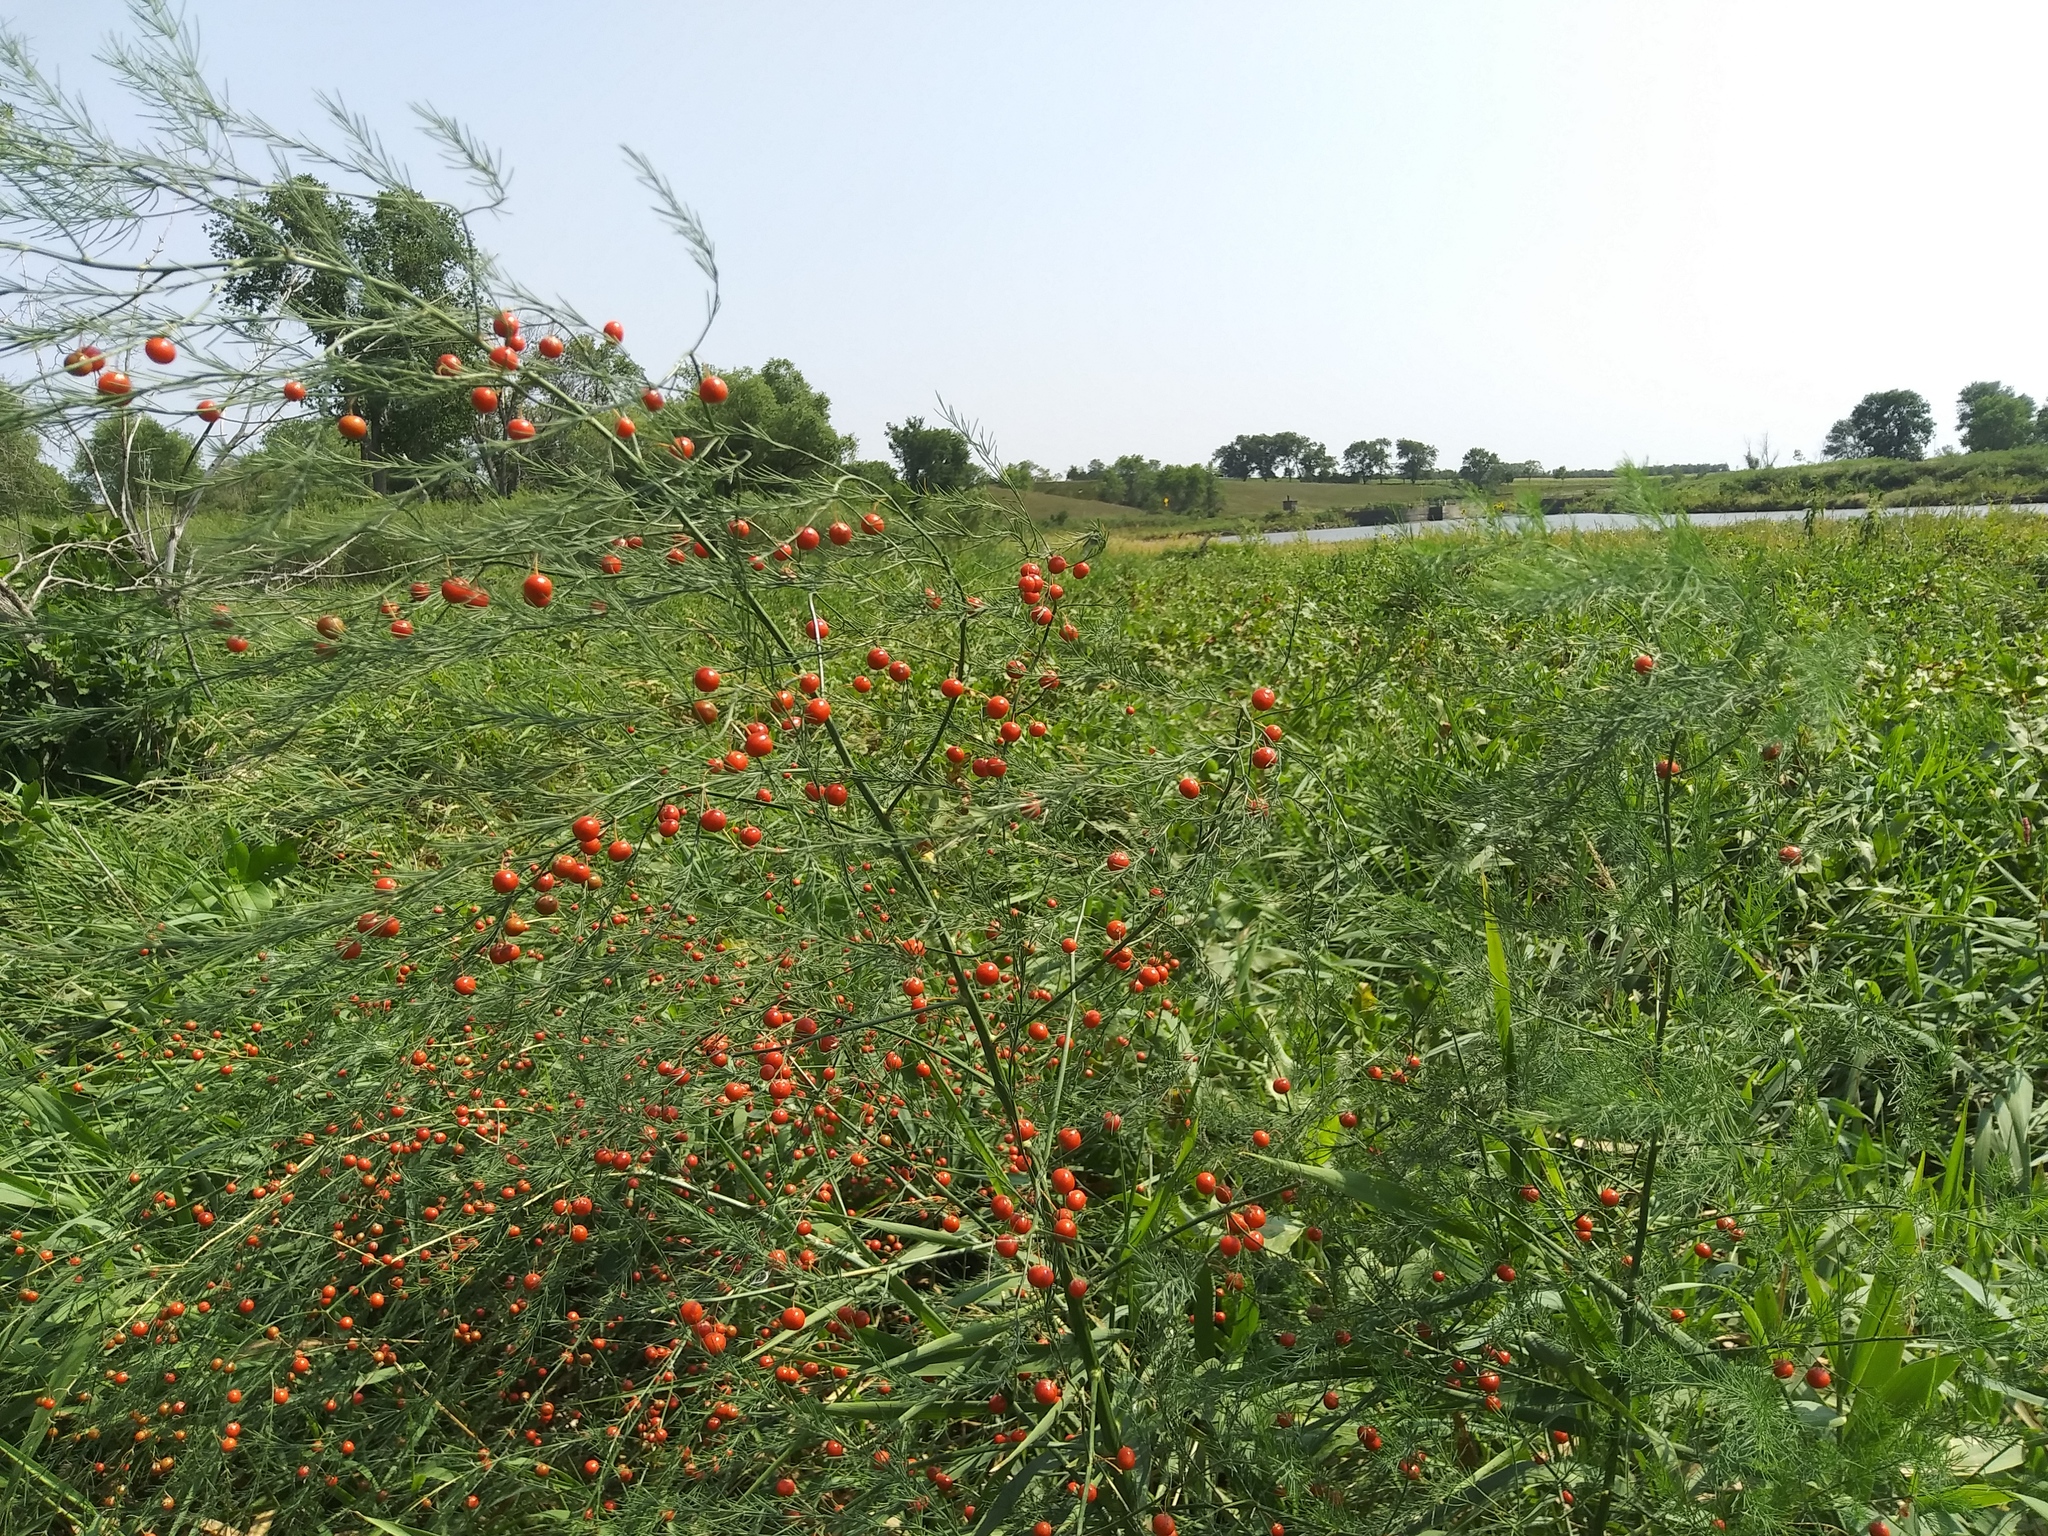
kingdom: Plantae
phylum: Tracheophyta
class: Liliopsida
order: Asparagales
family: Asparagaceae
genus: Asparagus
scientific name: Asparagus officinalis
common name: Garden asparagus
